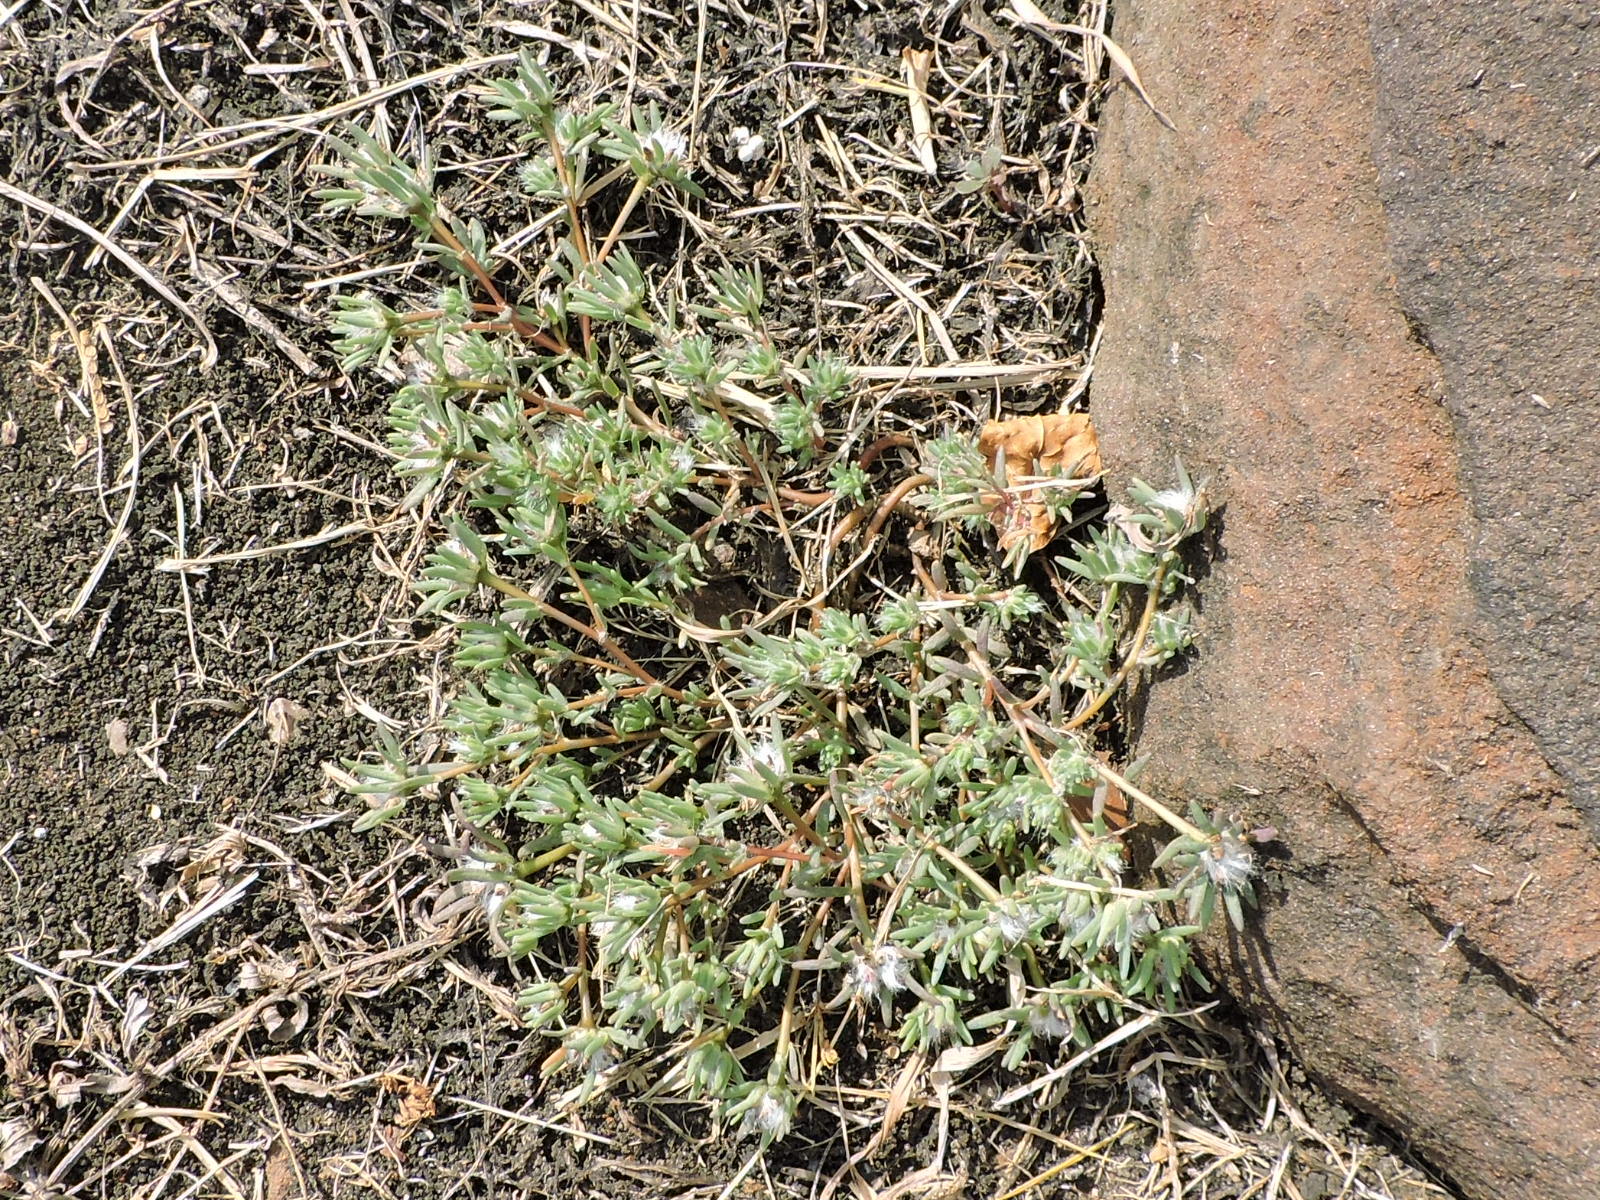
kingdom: Plantae
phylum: Tracheophyta
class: Magnoliopsida
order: Caryophyllales
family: Portulacaceae
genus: Portulaca
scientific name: Portulaca pilosa
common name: Kiss me quick
